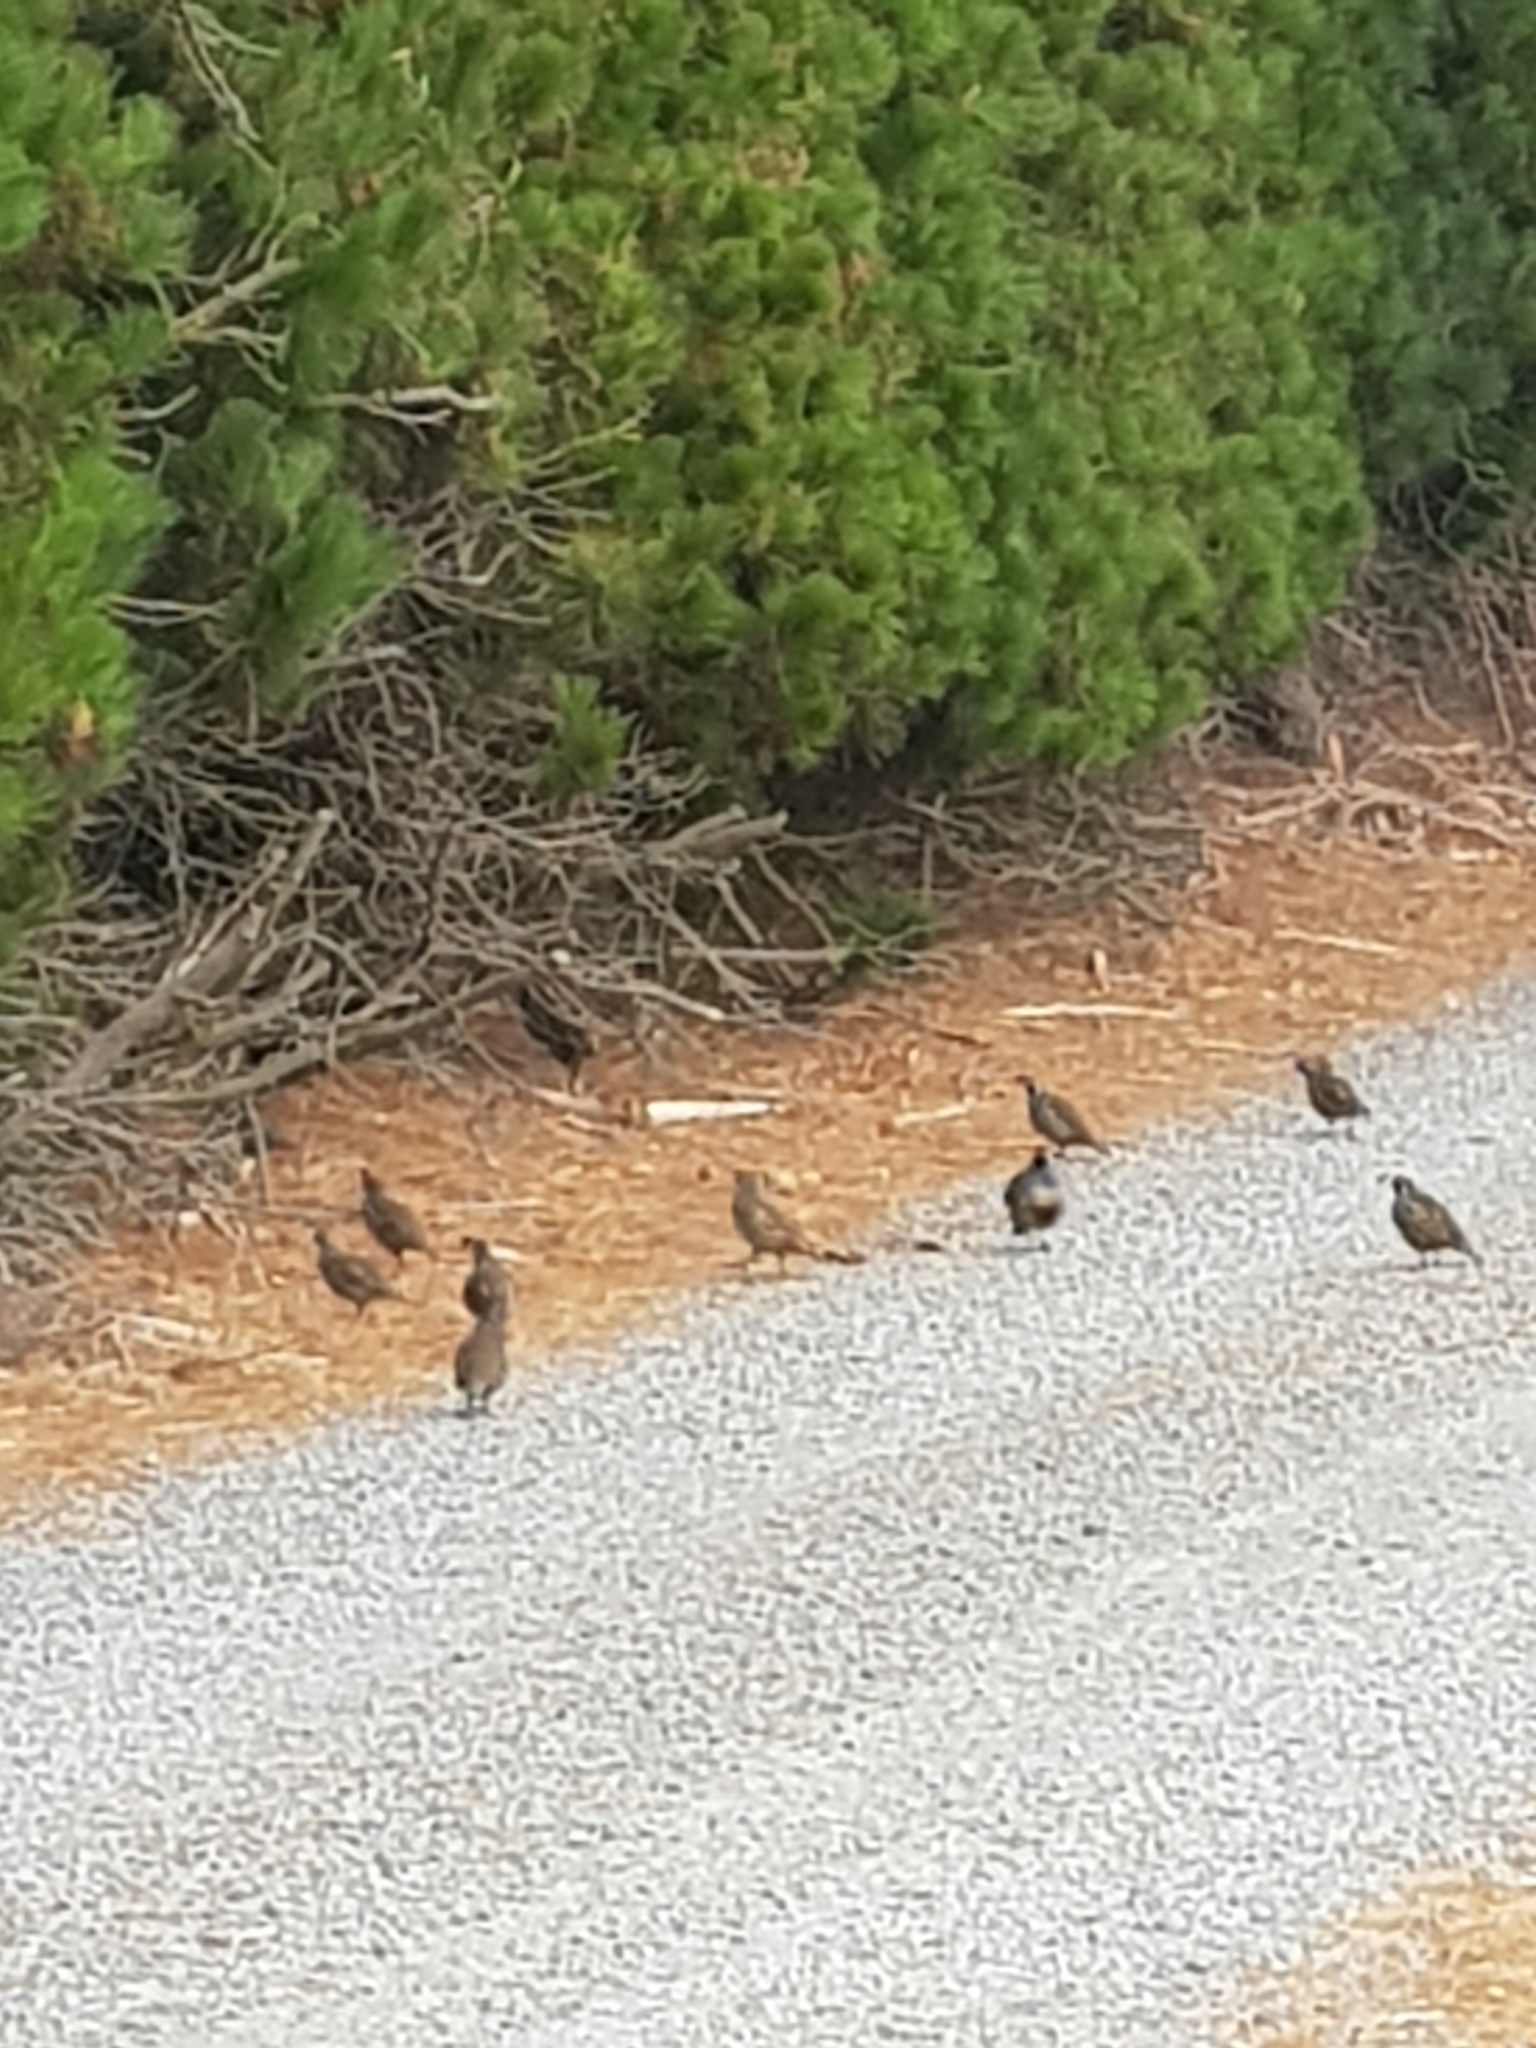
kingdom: Animalia
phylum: Chordata
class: Aves
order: Galliformes
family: Odontophoridae
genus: Callipepla
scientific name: Callipepla californica
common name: California quail
